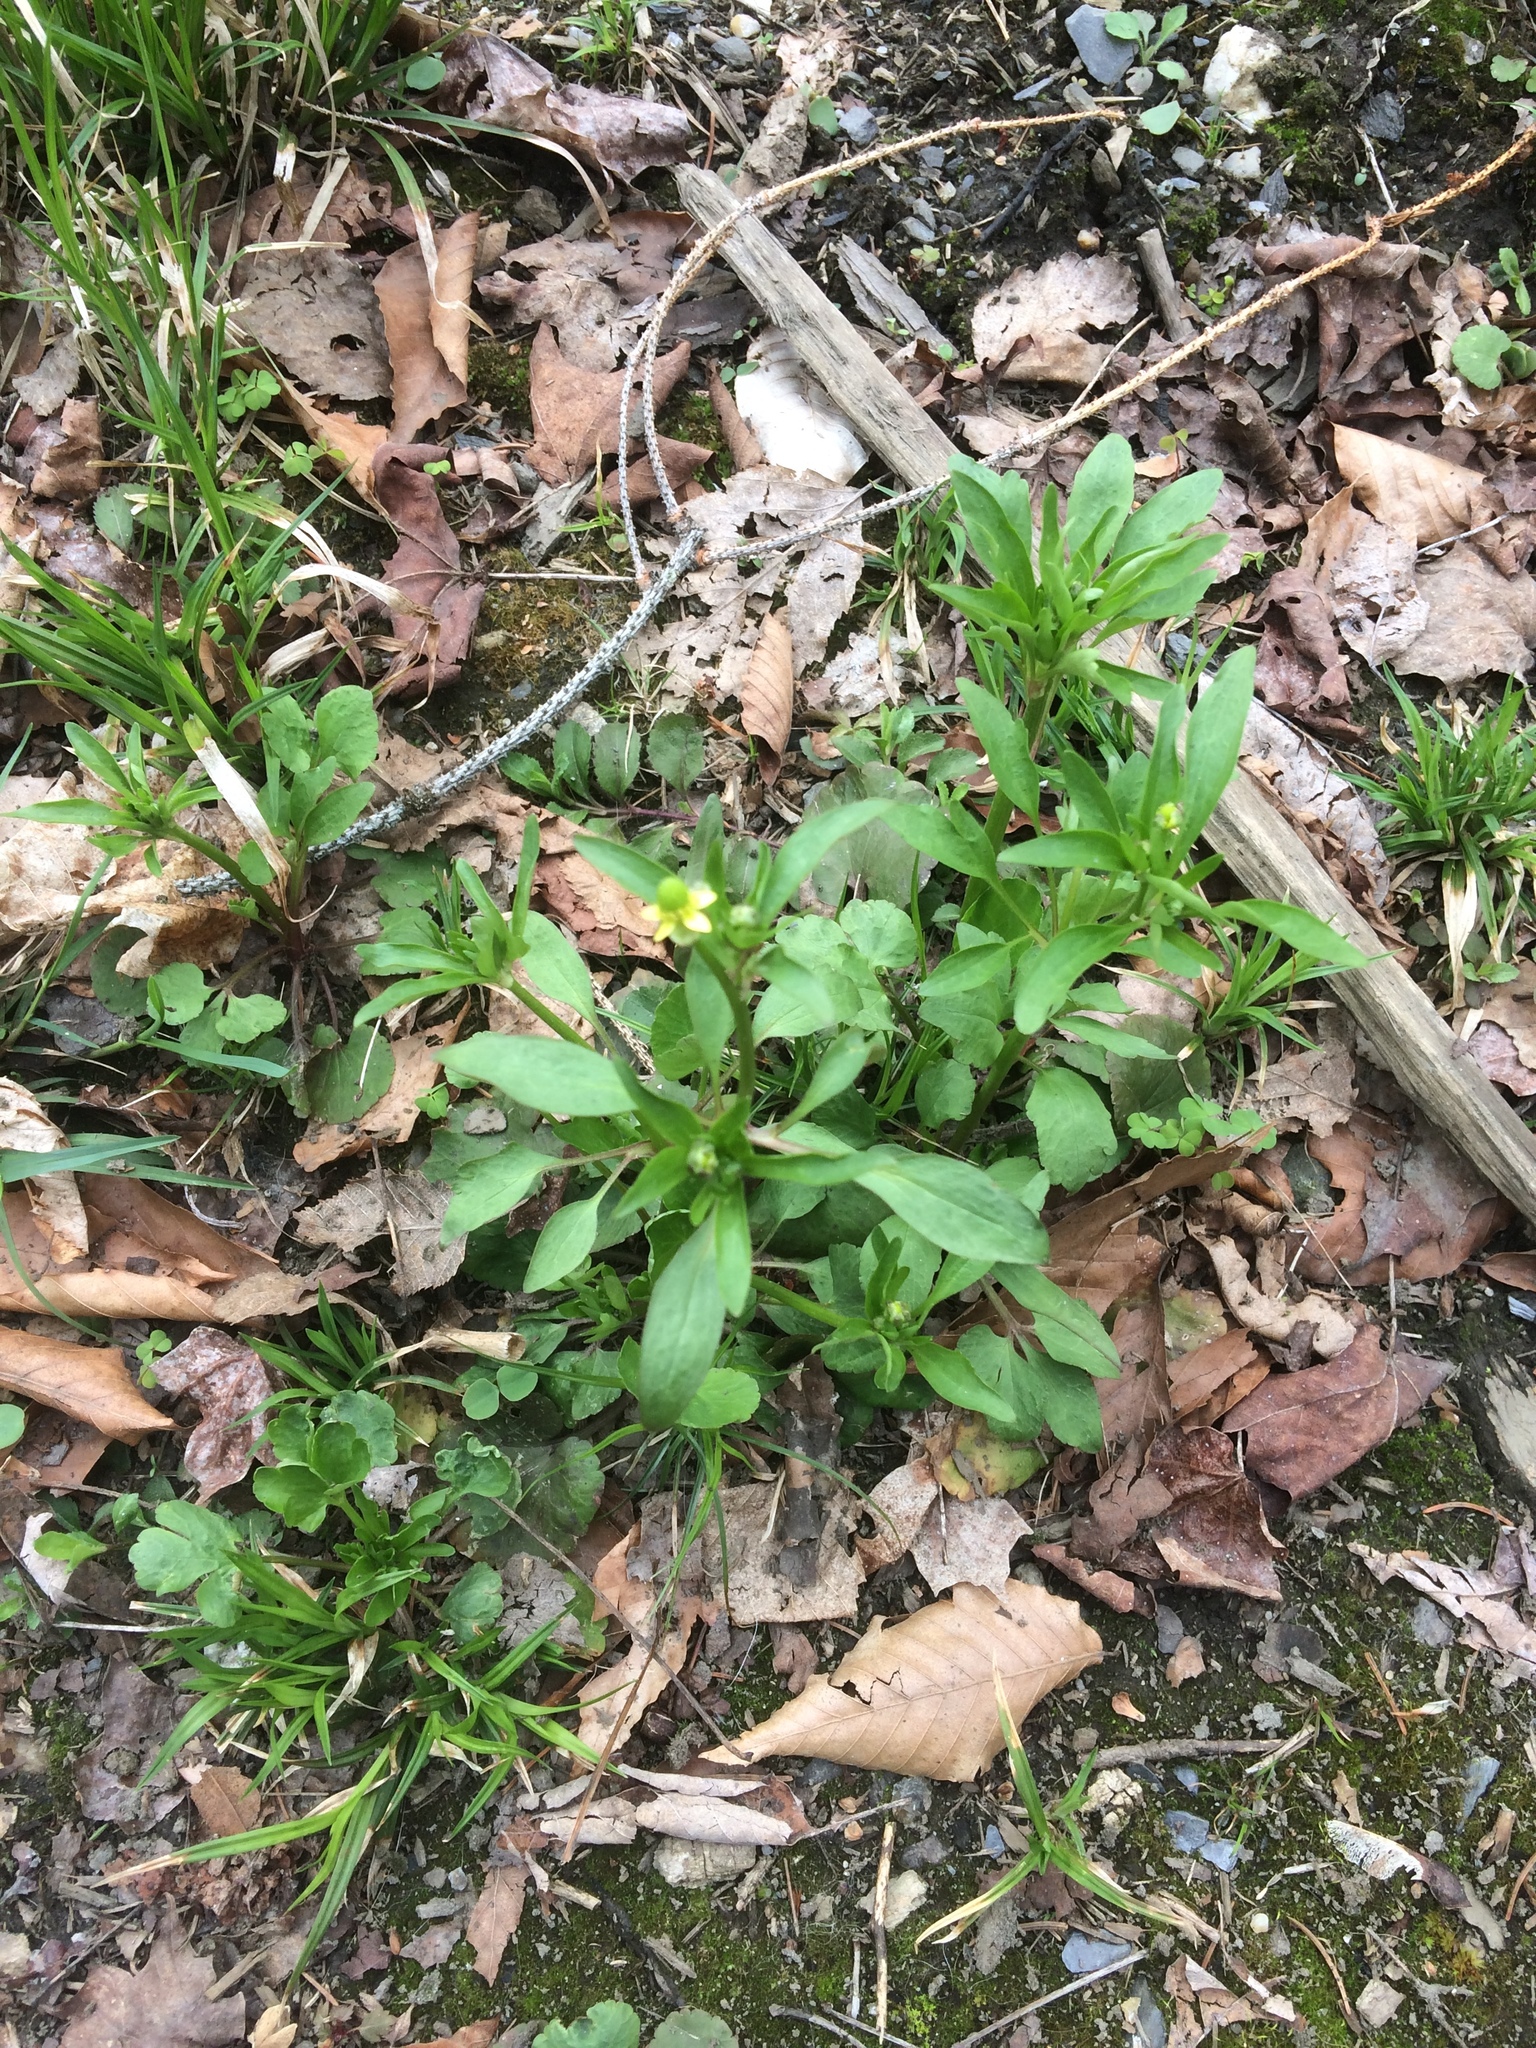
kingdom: Plantae
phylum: Tracheophyta
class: Magnoliopsida
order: Ranunculales
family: Ranunculaceae
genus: Ranunculus
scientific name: Ranunculus abortivus
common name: Early wood buttercup
